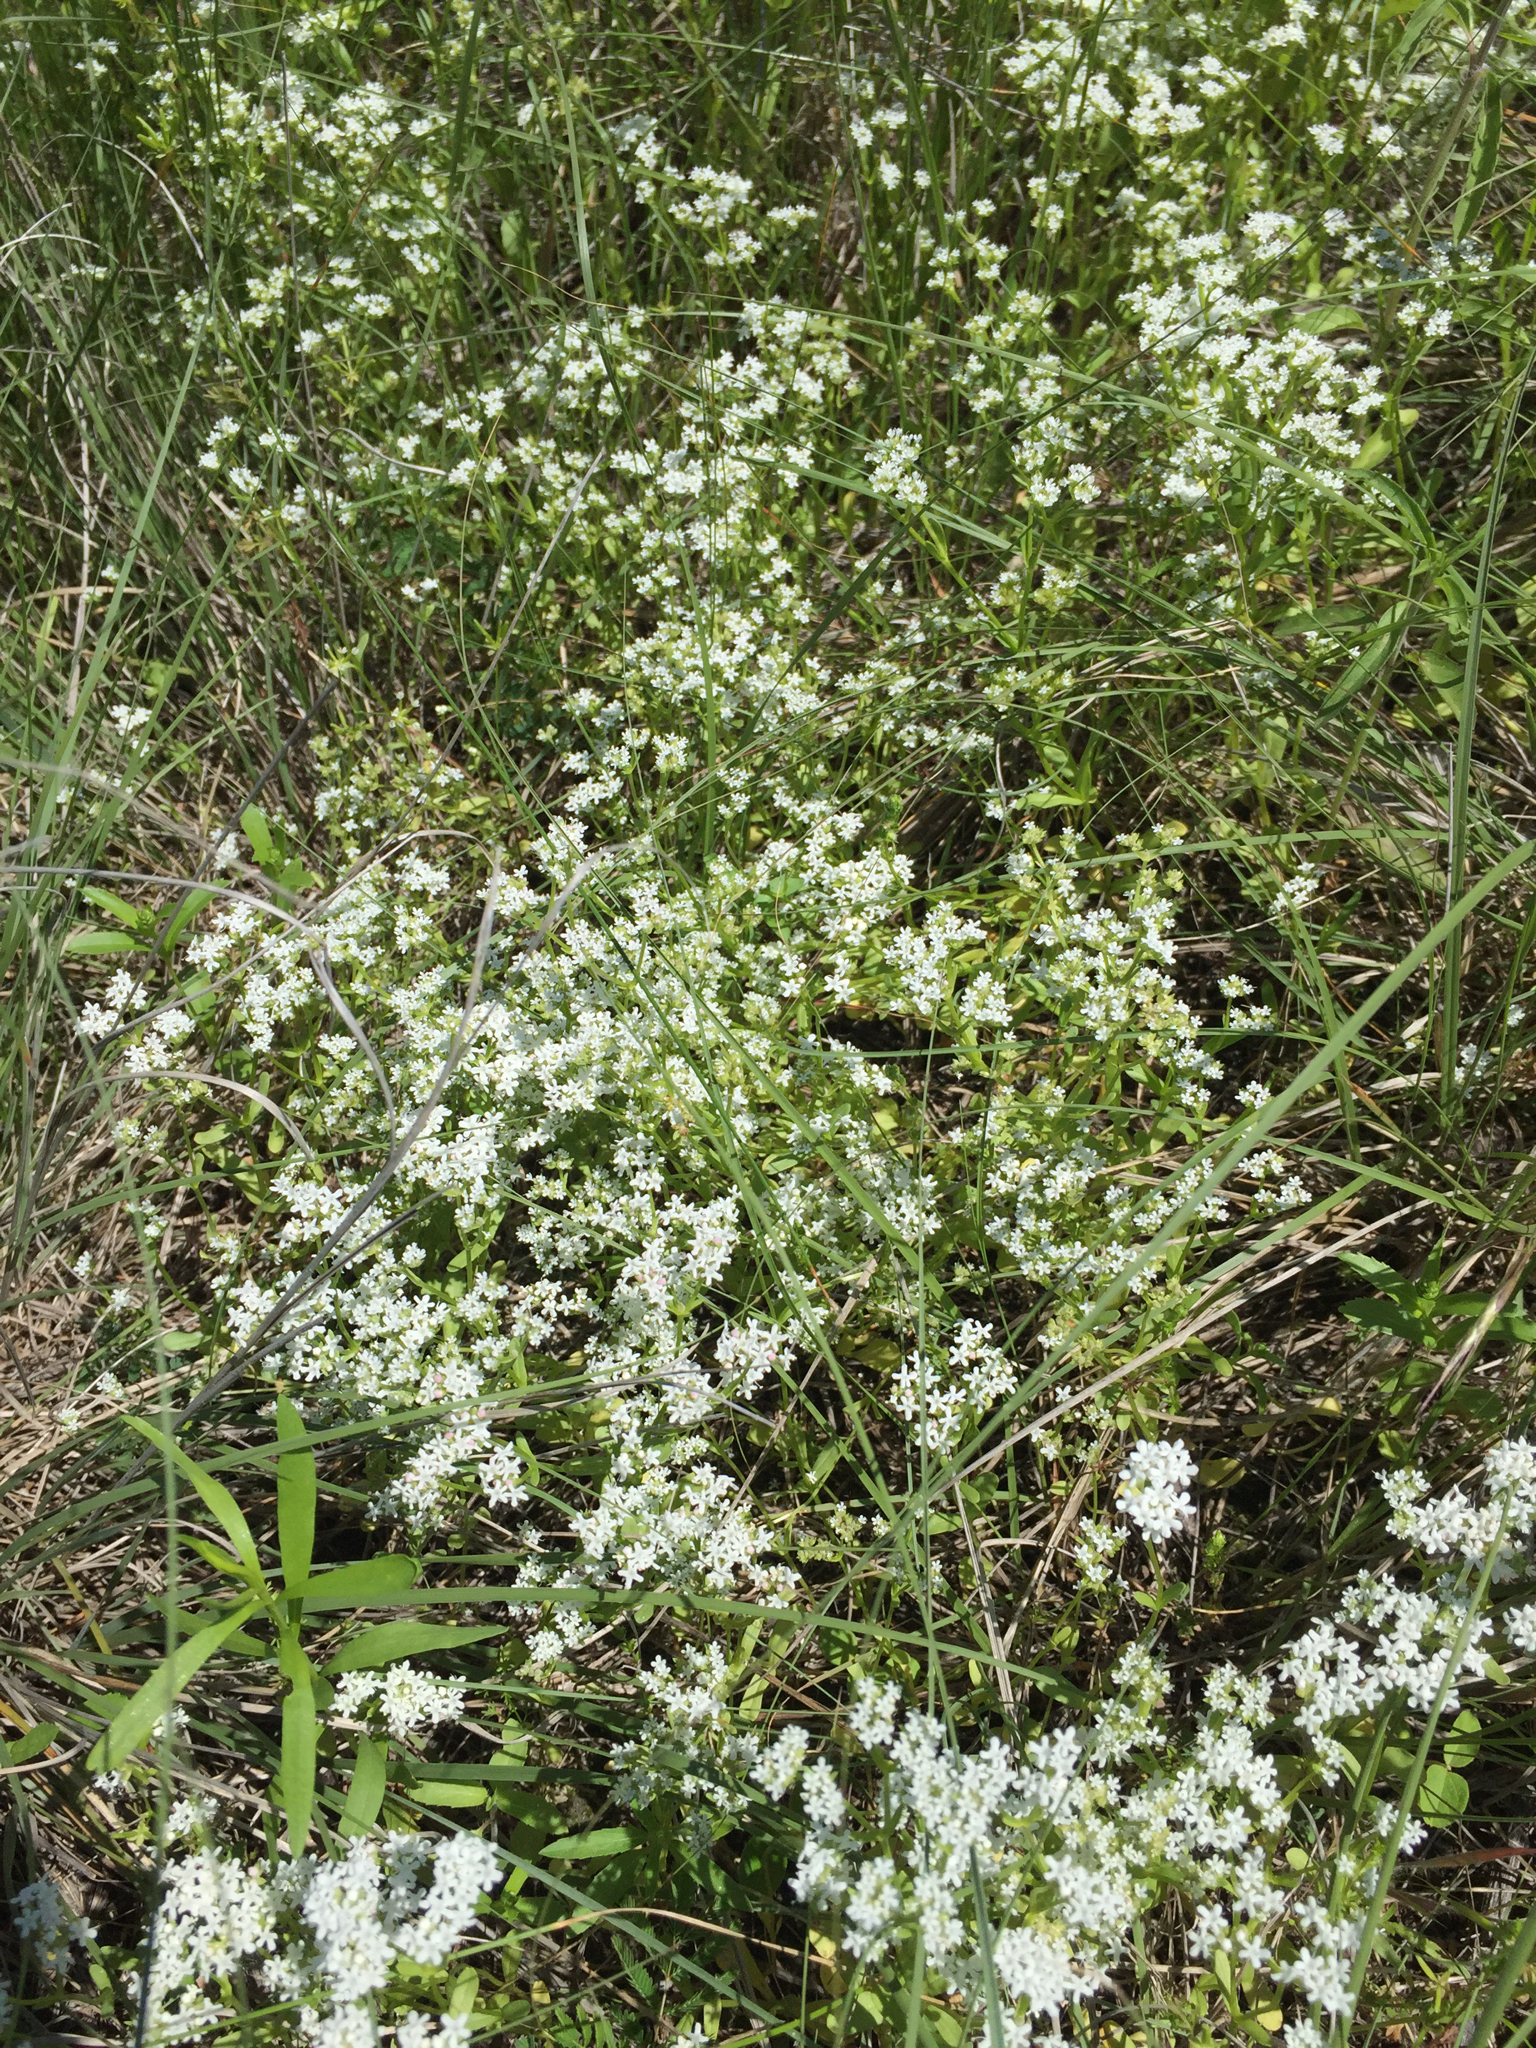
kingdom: Plantae
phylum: Tracheophyta
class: Magnoliopsida
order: Dipsacales
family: Caprifoliaceae
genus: Valerianella
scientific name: Valerianella amarella
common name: Hariy cornsalad
